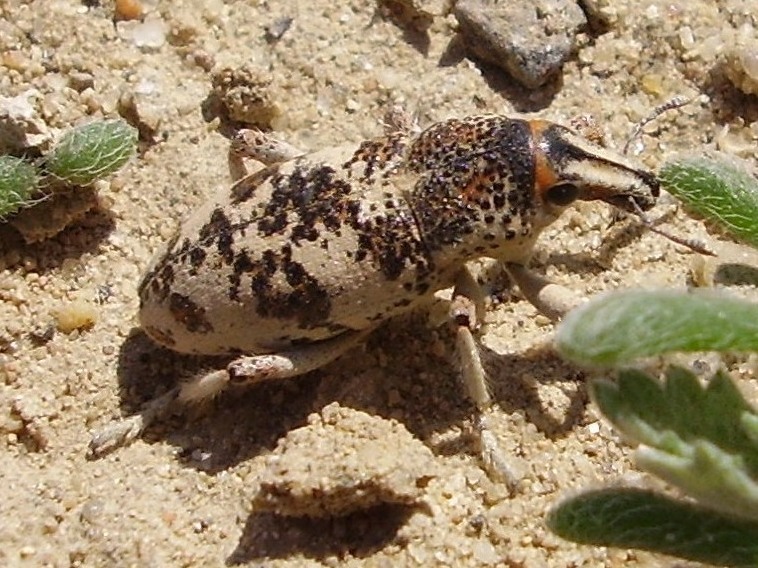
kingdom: Animalia
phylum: Arthropoda
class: Insecta
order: Coleoptera
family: Curculionidae
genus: Cleonus
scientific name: Cleonus verrucosus
